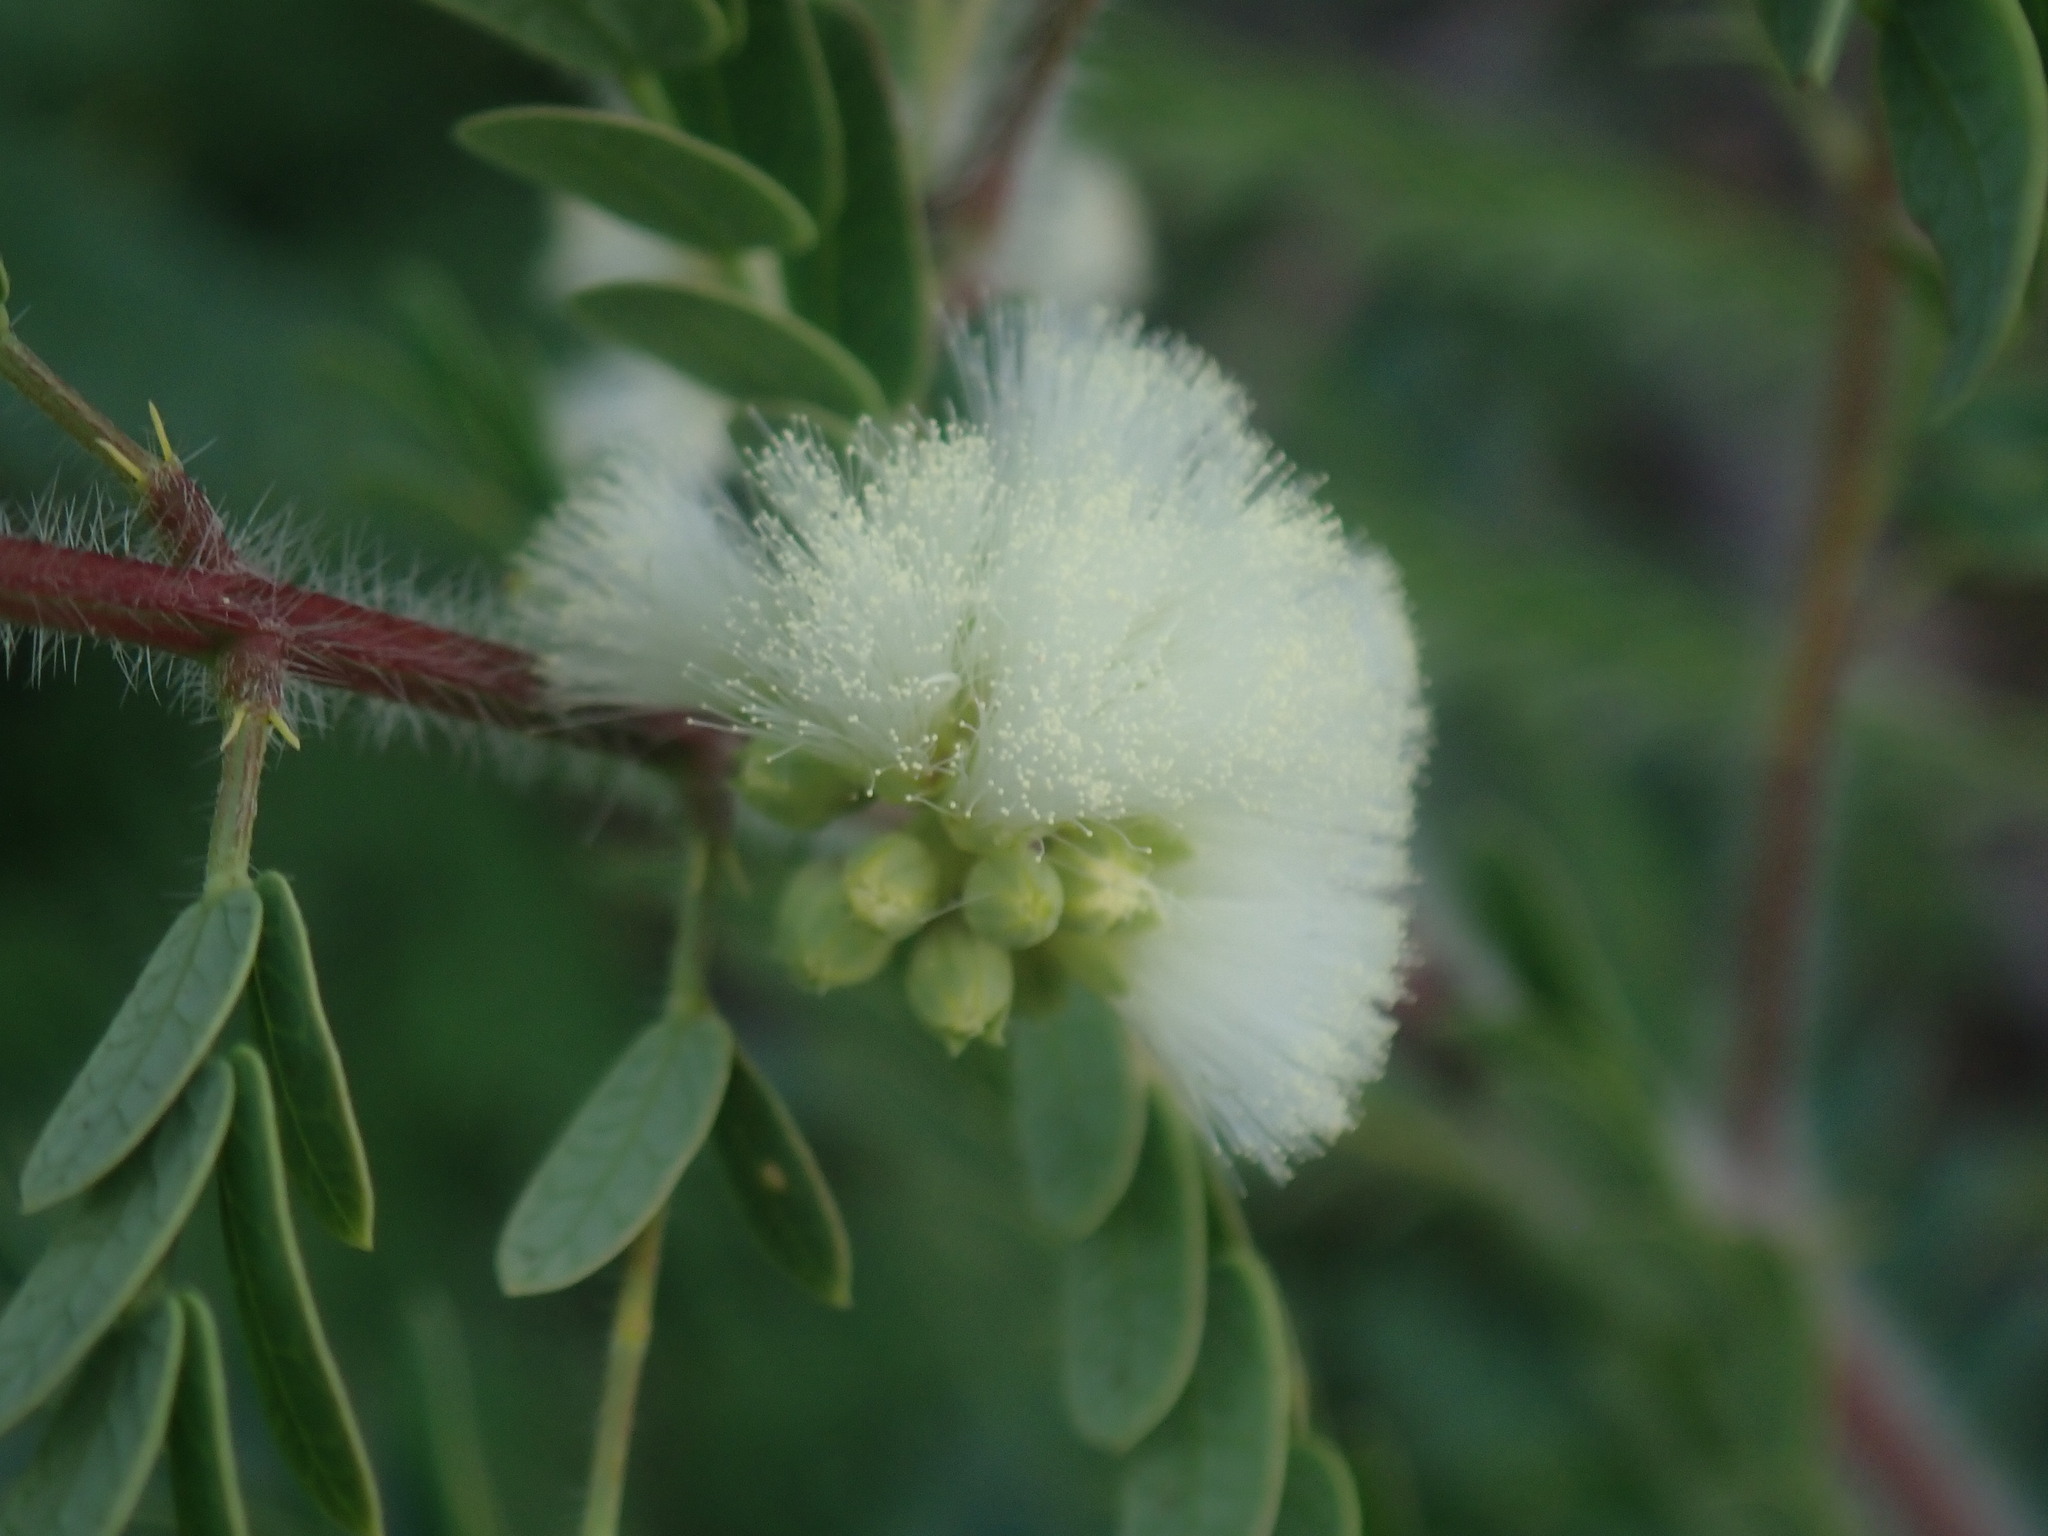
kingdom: Plantae
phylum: Tracheophyta
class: Magnoliopsida
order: Fabales
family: Fabaceae
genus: Acaciella
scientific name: Acaciella angustissima
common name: Prairie acacia
